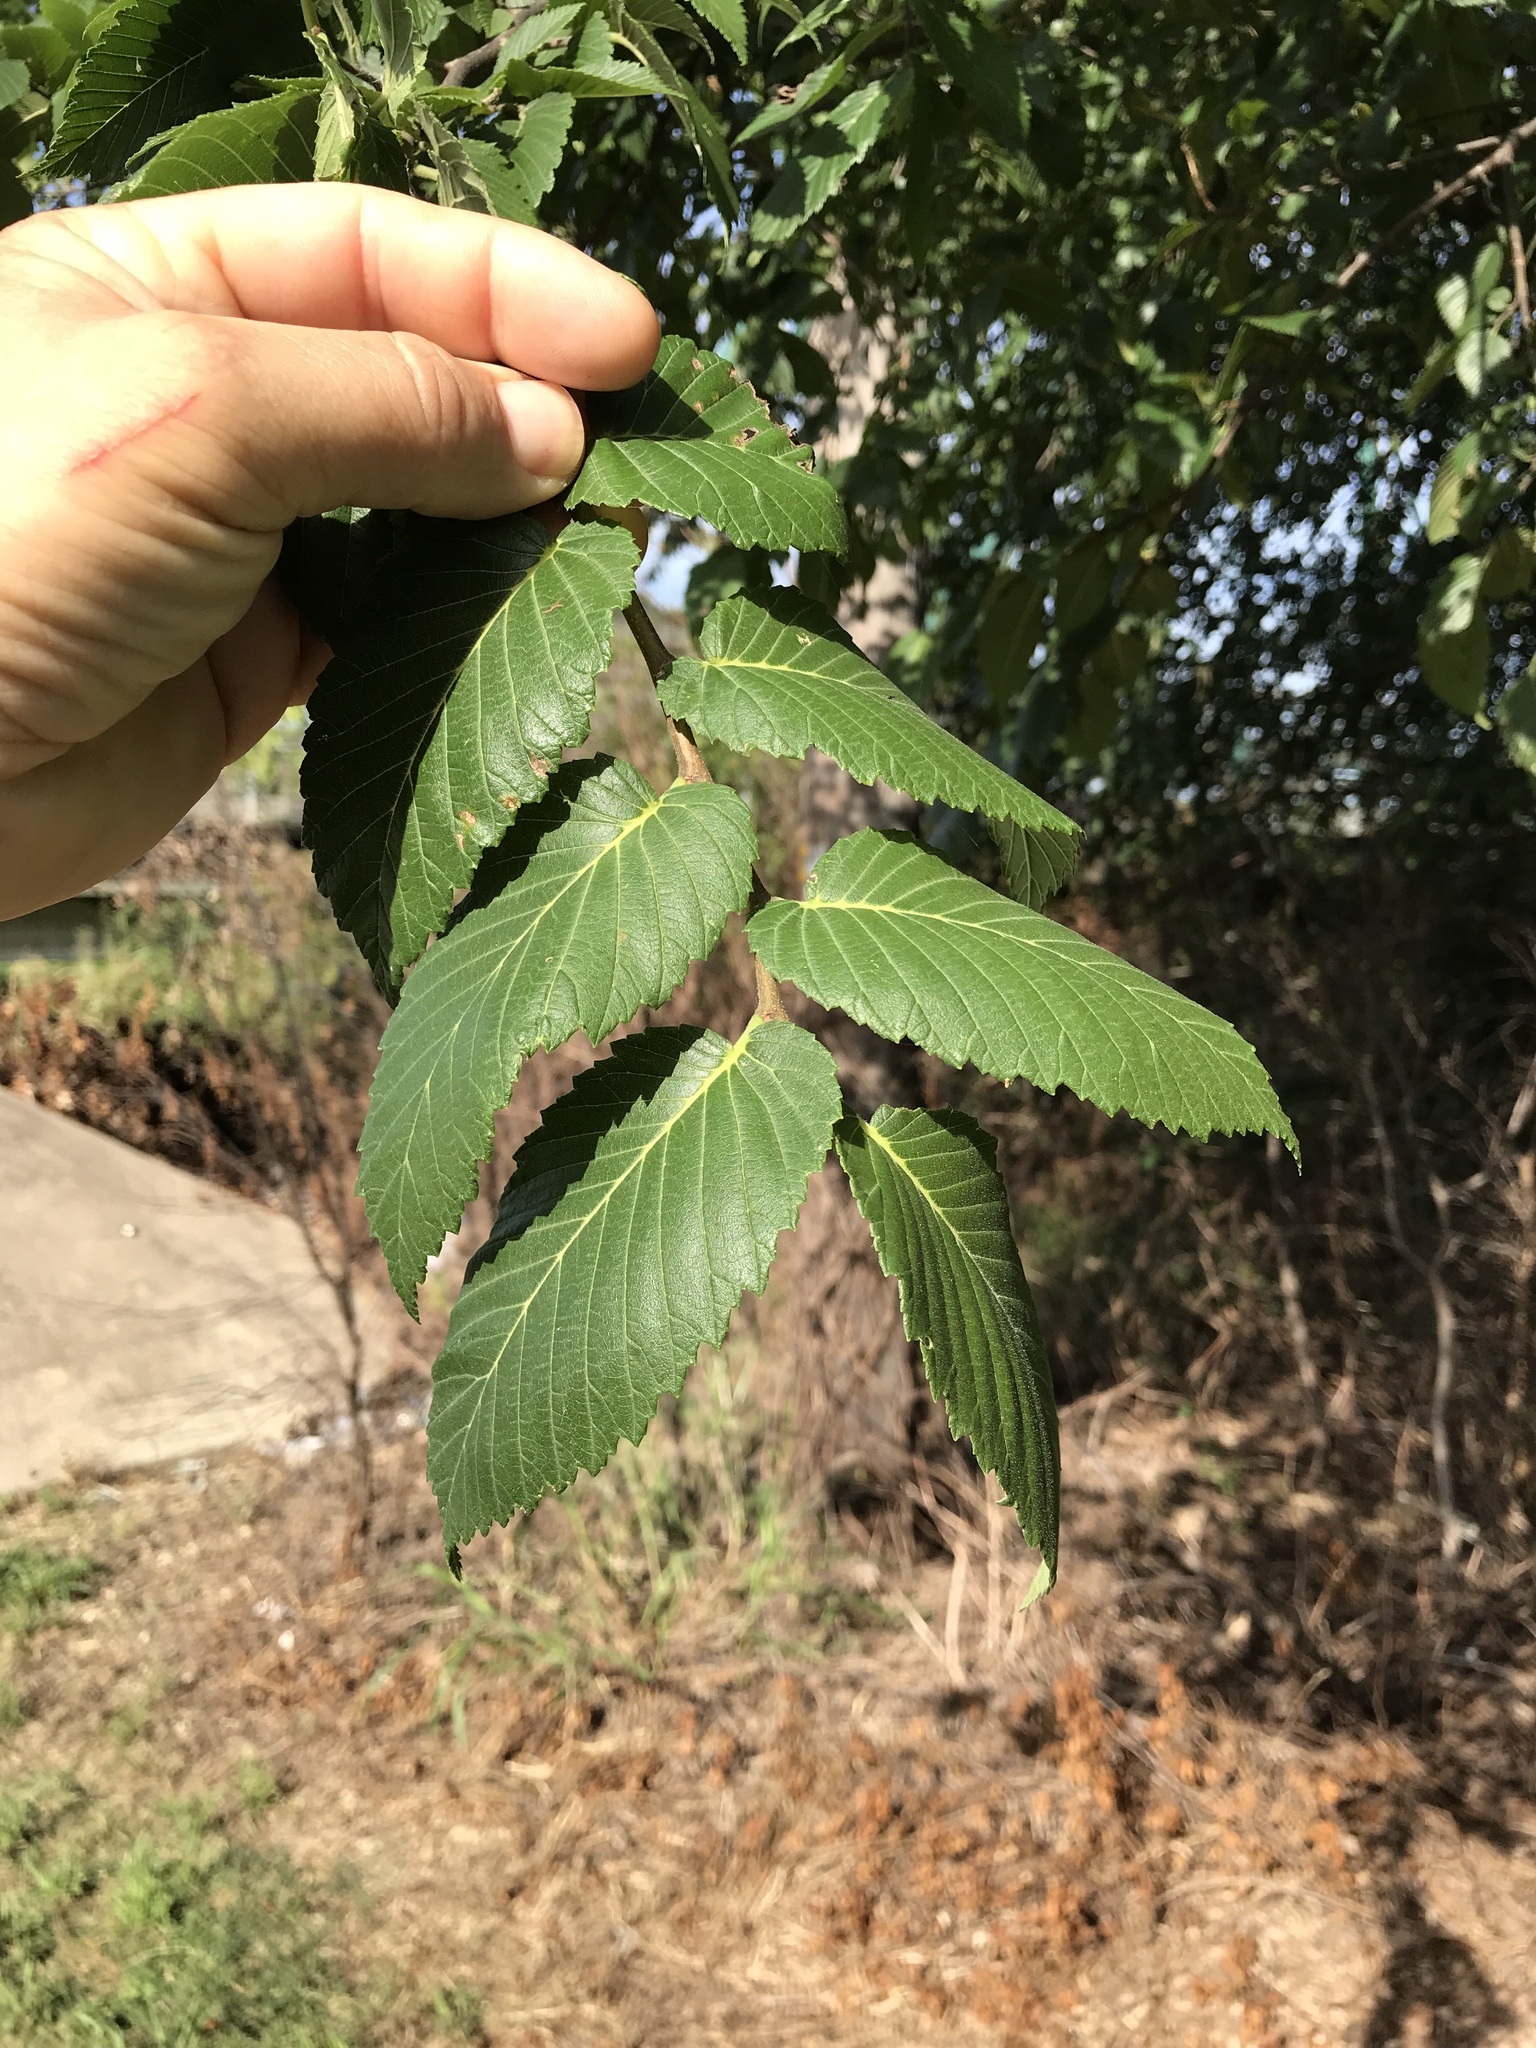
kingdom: Plantae
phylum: Tracheophyta
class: Magnoliopsida
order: Rosales
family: Ulmaceae
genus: Ulmus
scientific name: Ulmus americana
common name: American elm
